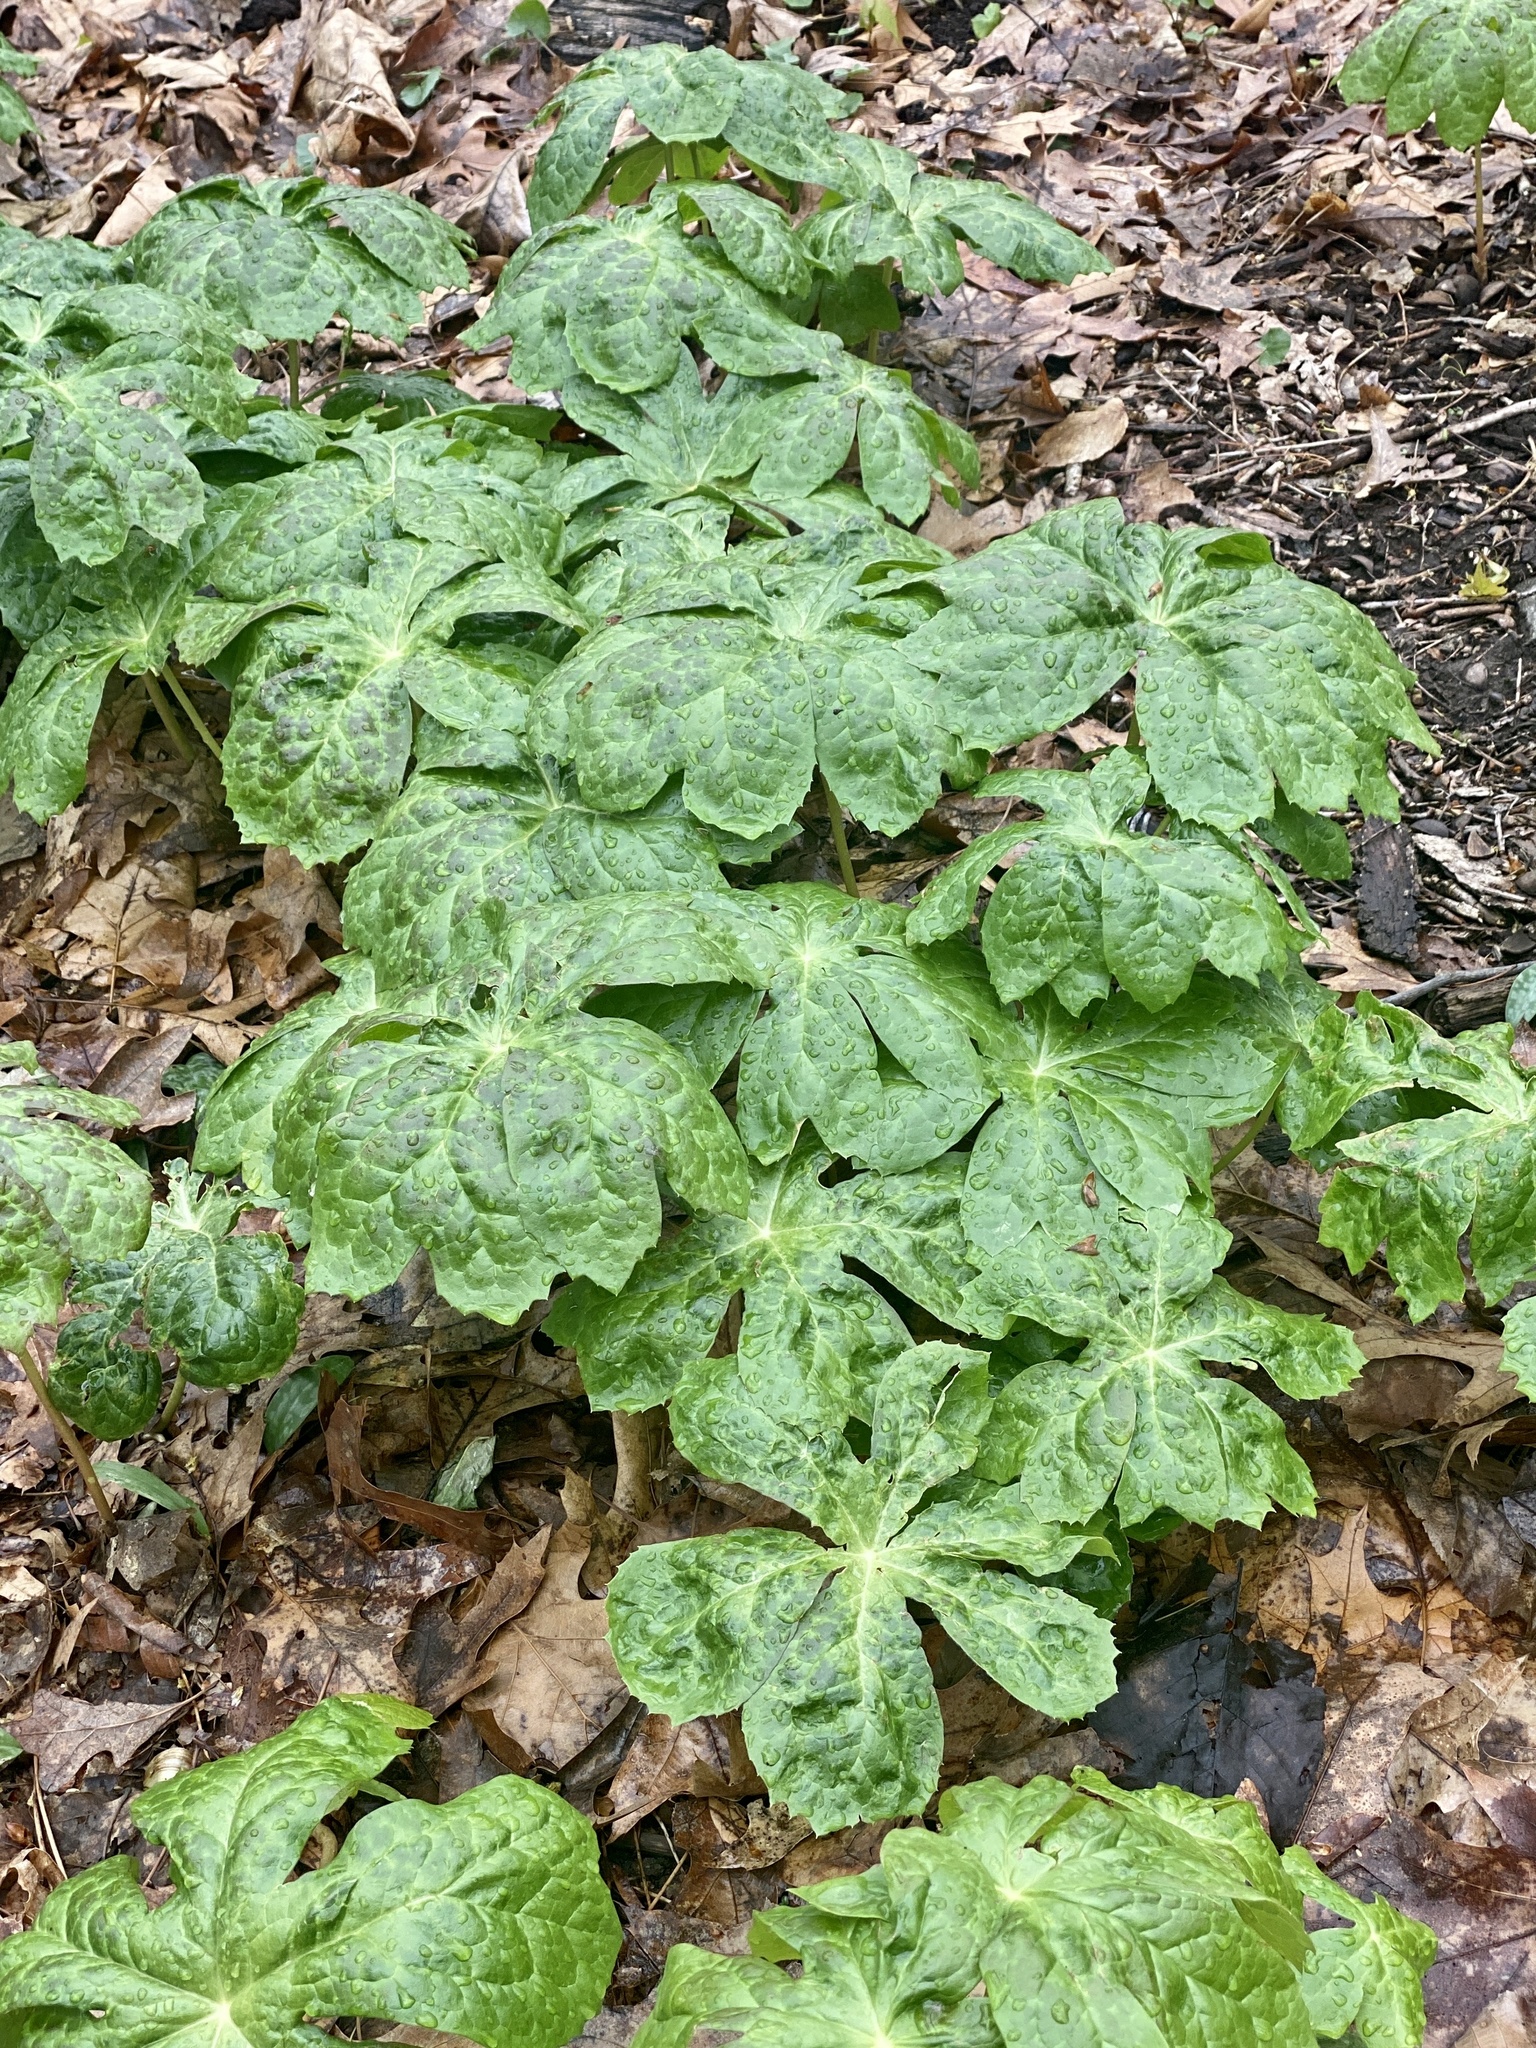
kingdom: Plantae
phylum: Tracheophyta
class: Magnoliopsida
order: Ranunculales
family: Berberidaceae
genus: Podophyllum
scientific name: Podophyllum peltatum
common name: Wild mandrake
